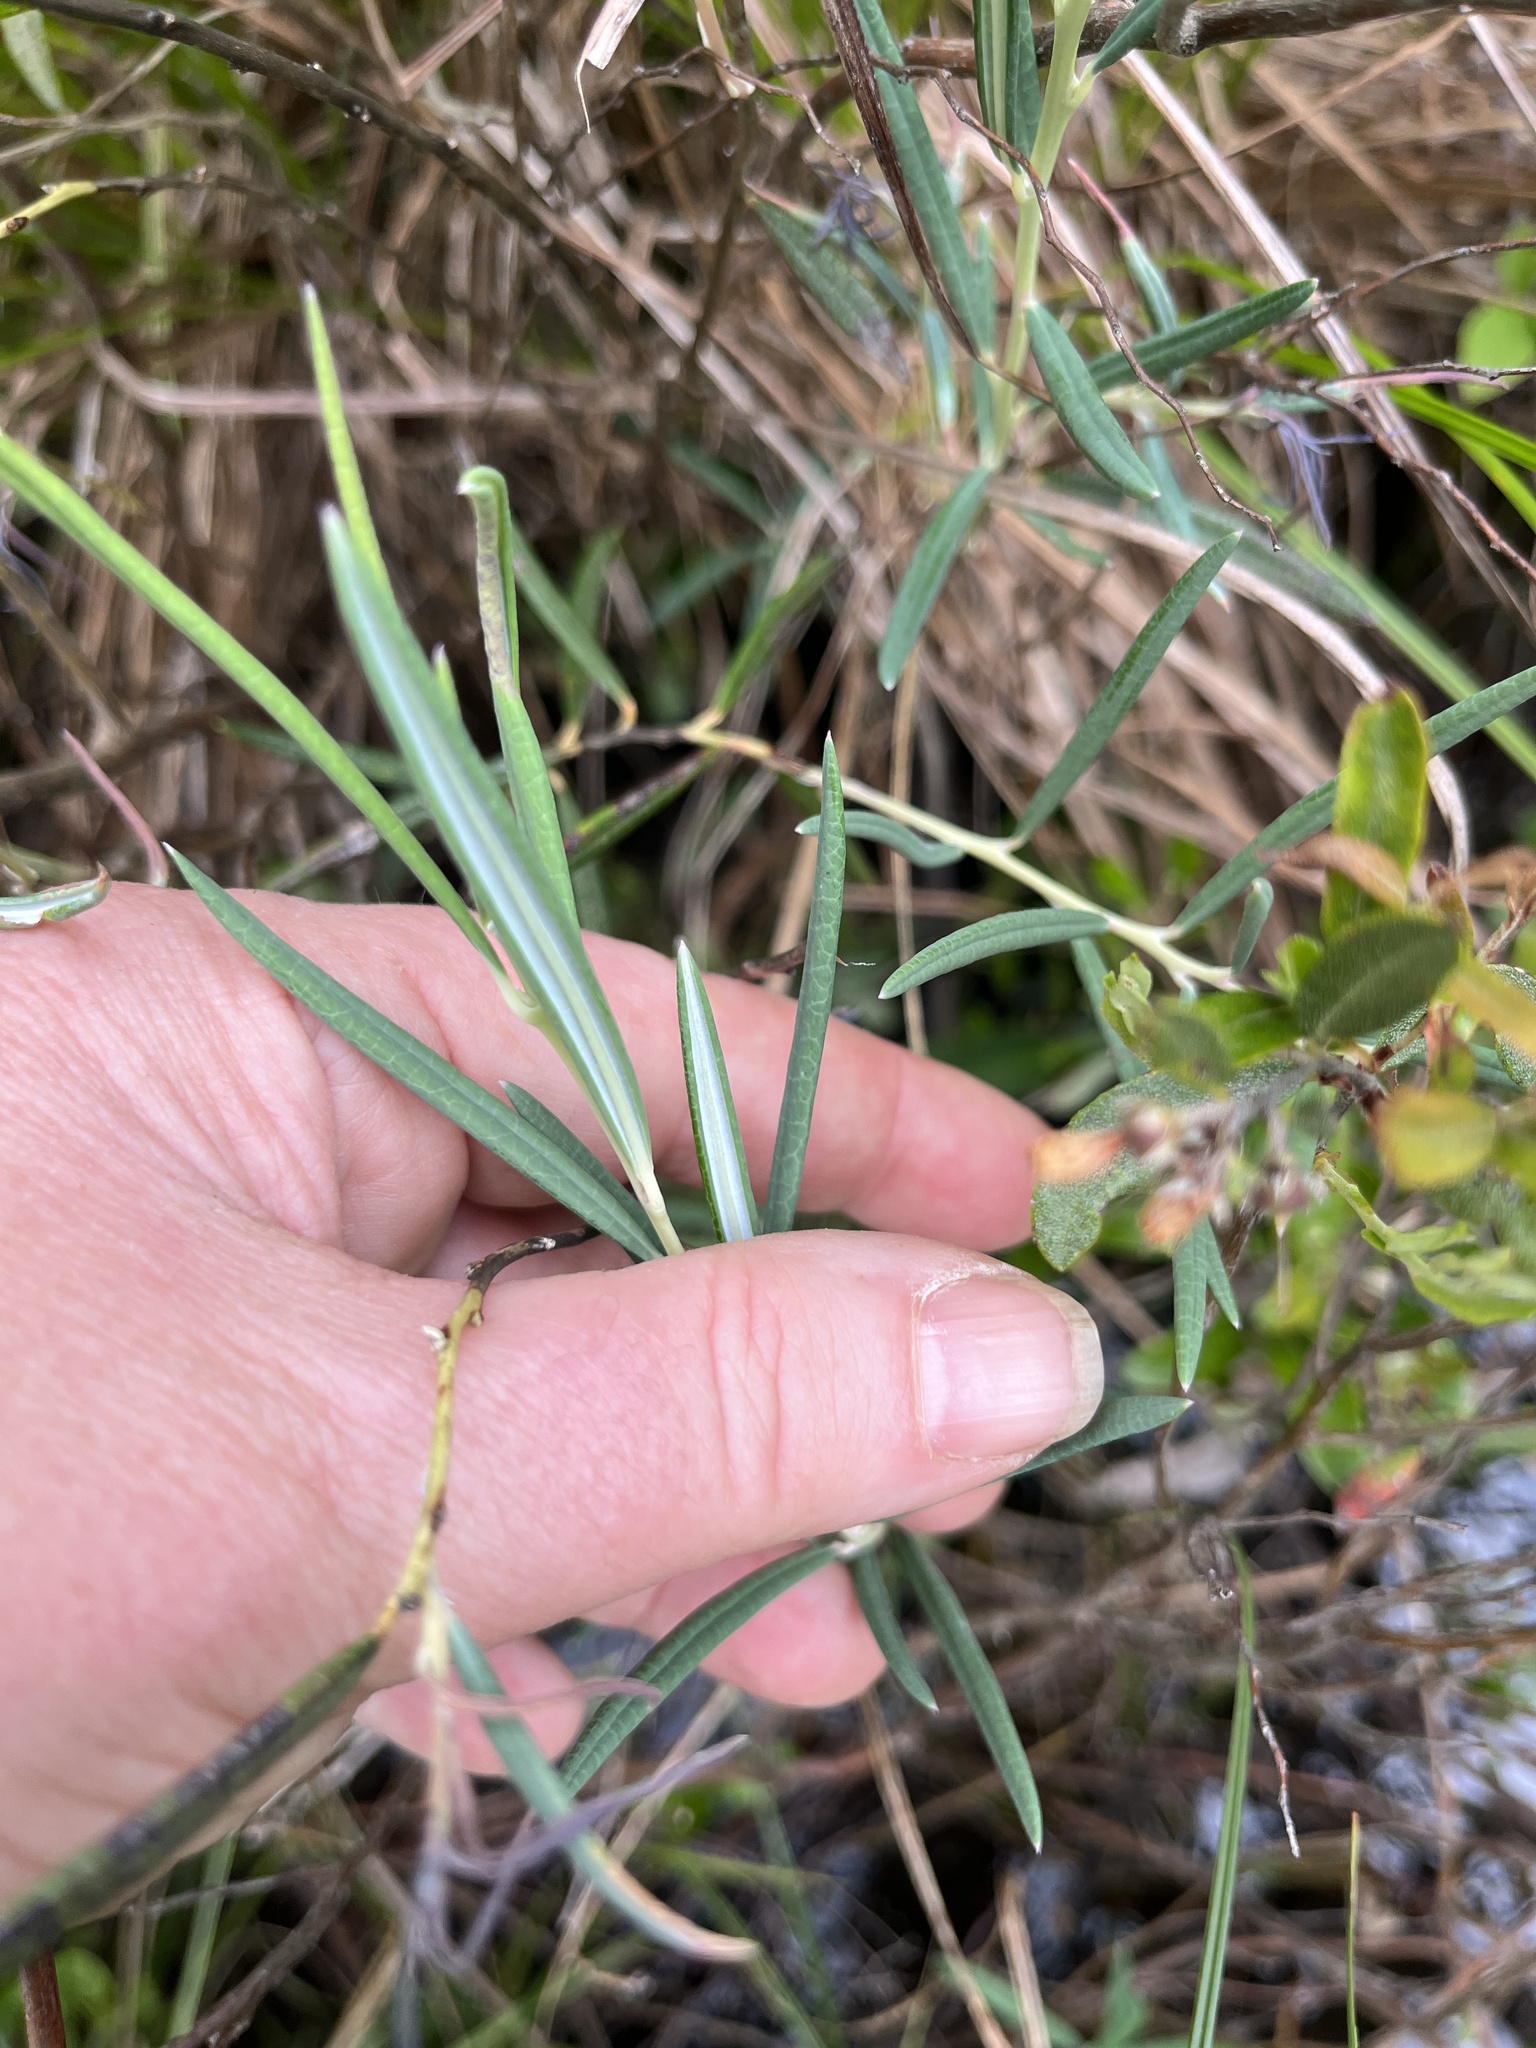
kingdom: Plantae
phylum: Tracheophyta
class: Magnoliopsida
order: Ericales
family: Ericaceae
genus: Andromeda
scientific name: Andromeda polifolia
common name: Bog-rosemary
